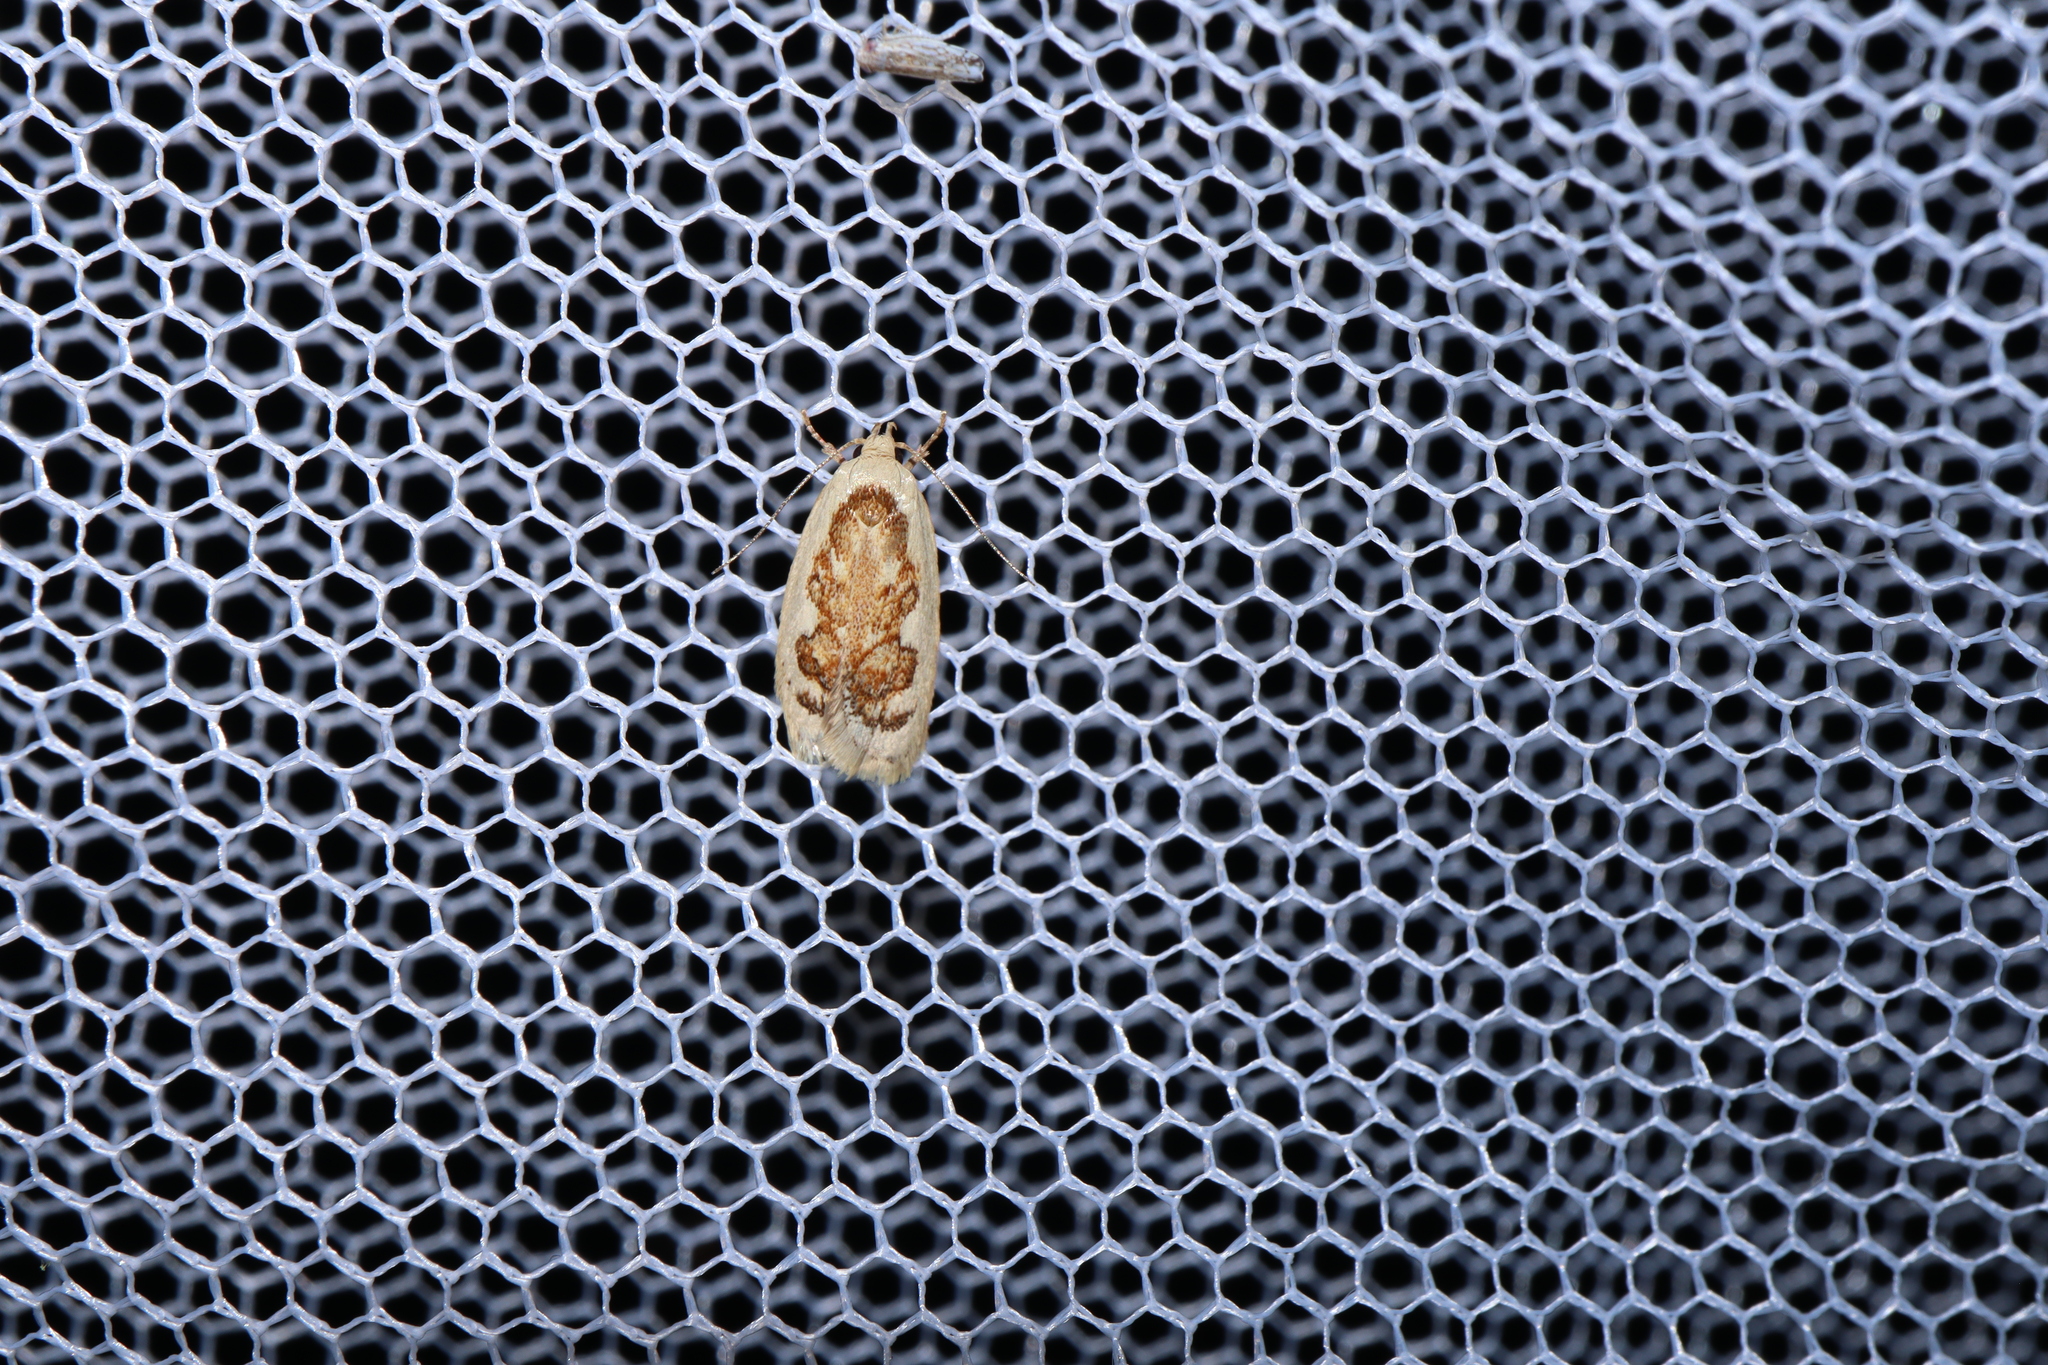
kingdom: Animalia
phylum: Arthropoda
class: Insecta
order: Lepidoptera
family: Oecophoridae
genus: Garrha
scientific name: Garrha idiosema
